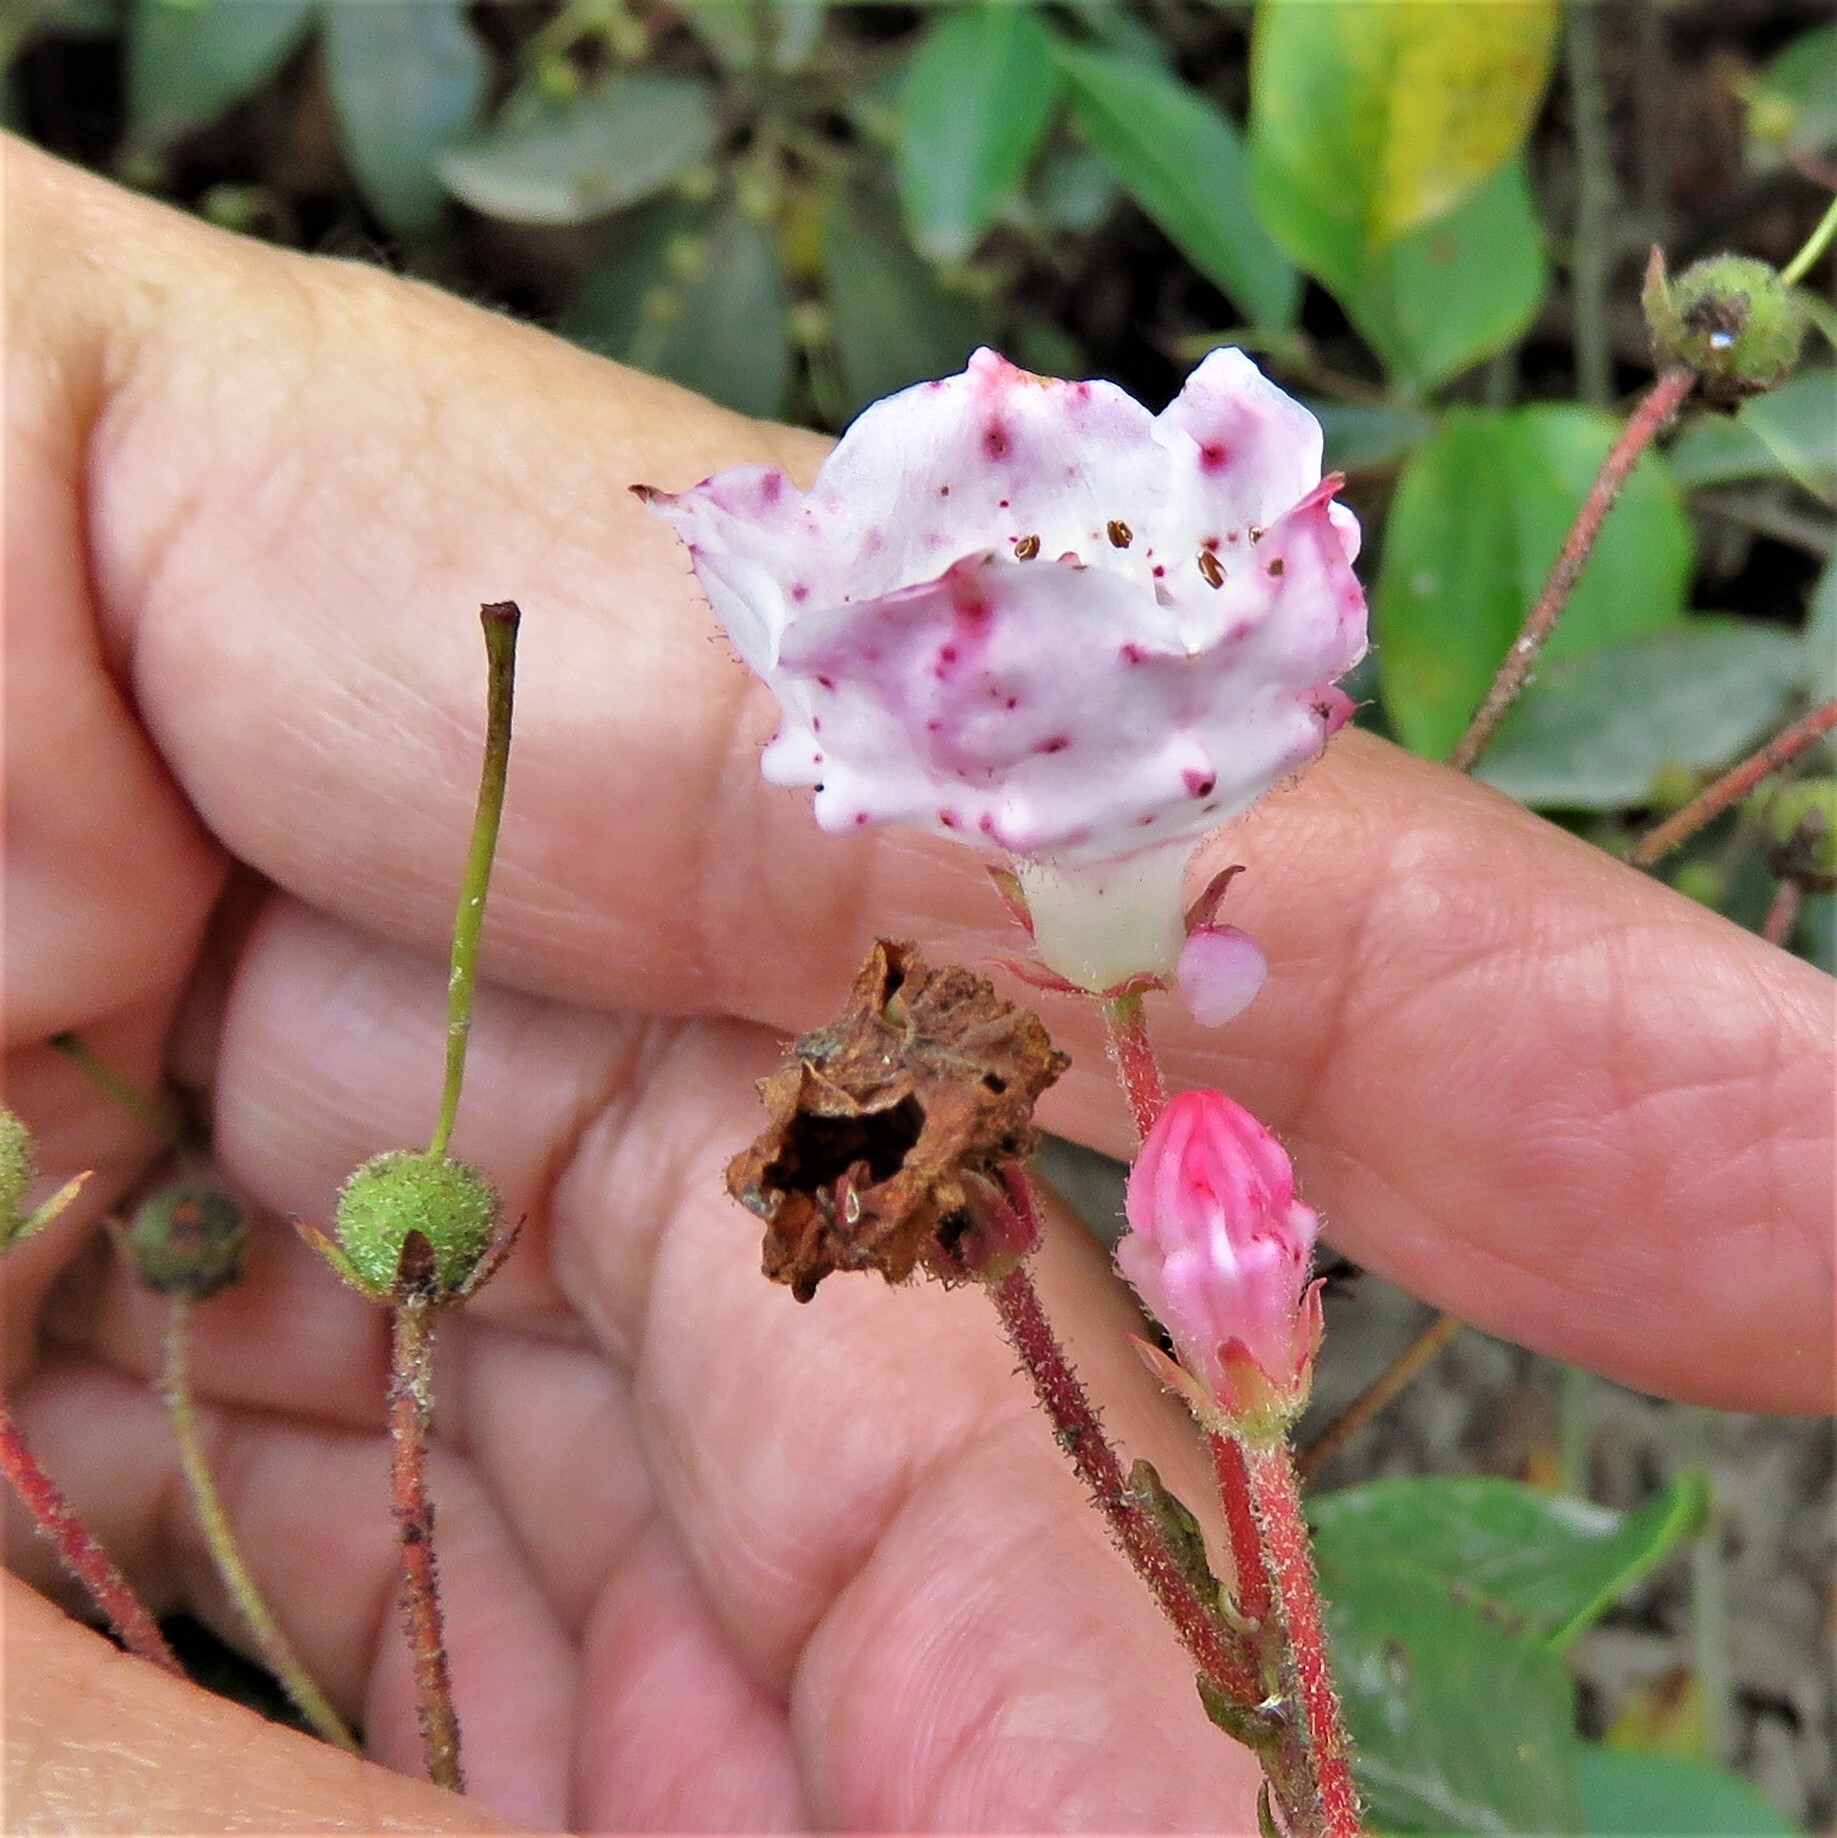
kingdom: Plantae
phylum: Tracheophyta
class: Magnoliopsida
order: Ericales
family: Ericaceae
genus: Kalmia
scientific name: Kalmia latifolia
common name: Mountain-laurel
